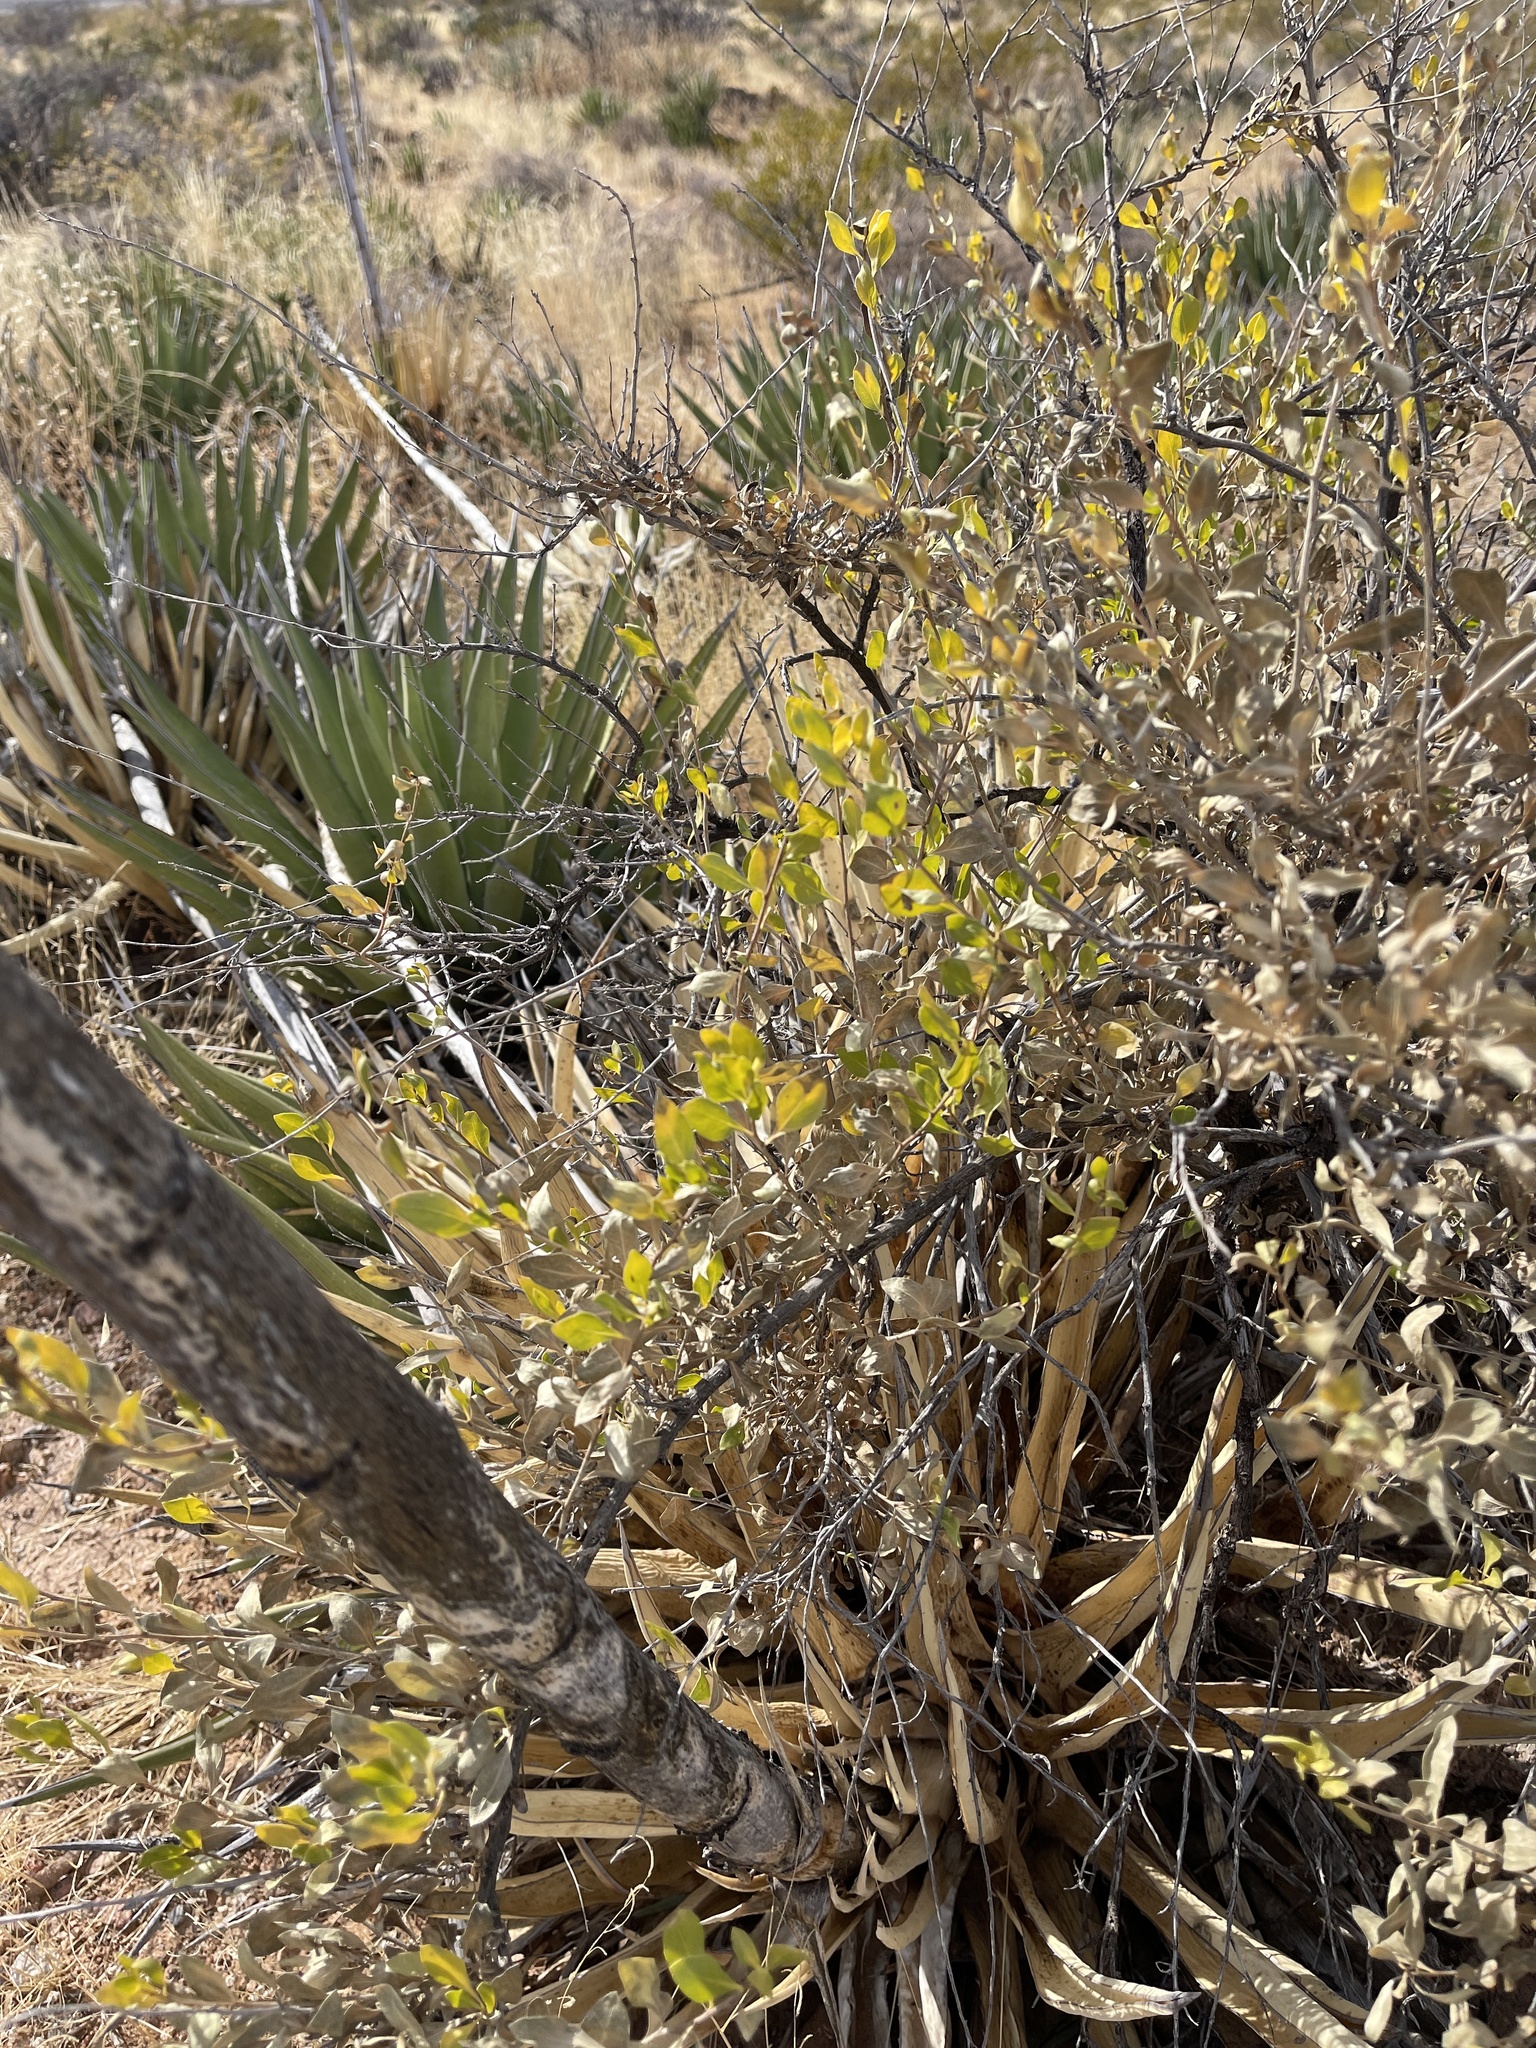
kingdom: Plantae
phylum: Tracheophyta
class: Magnoliopsida
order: Asterales
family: Asteraceae
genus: Flourensia
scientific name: Flourensia cernua
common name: Varnishbush
